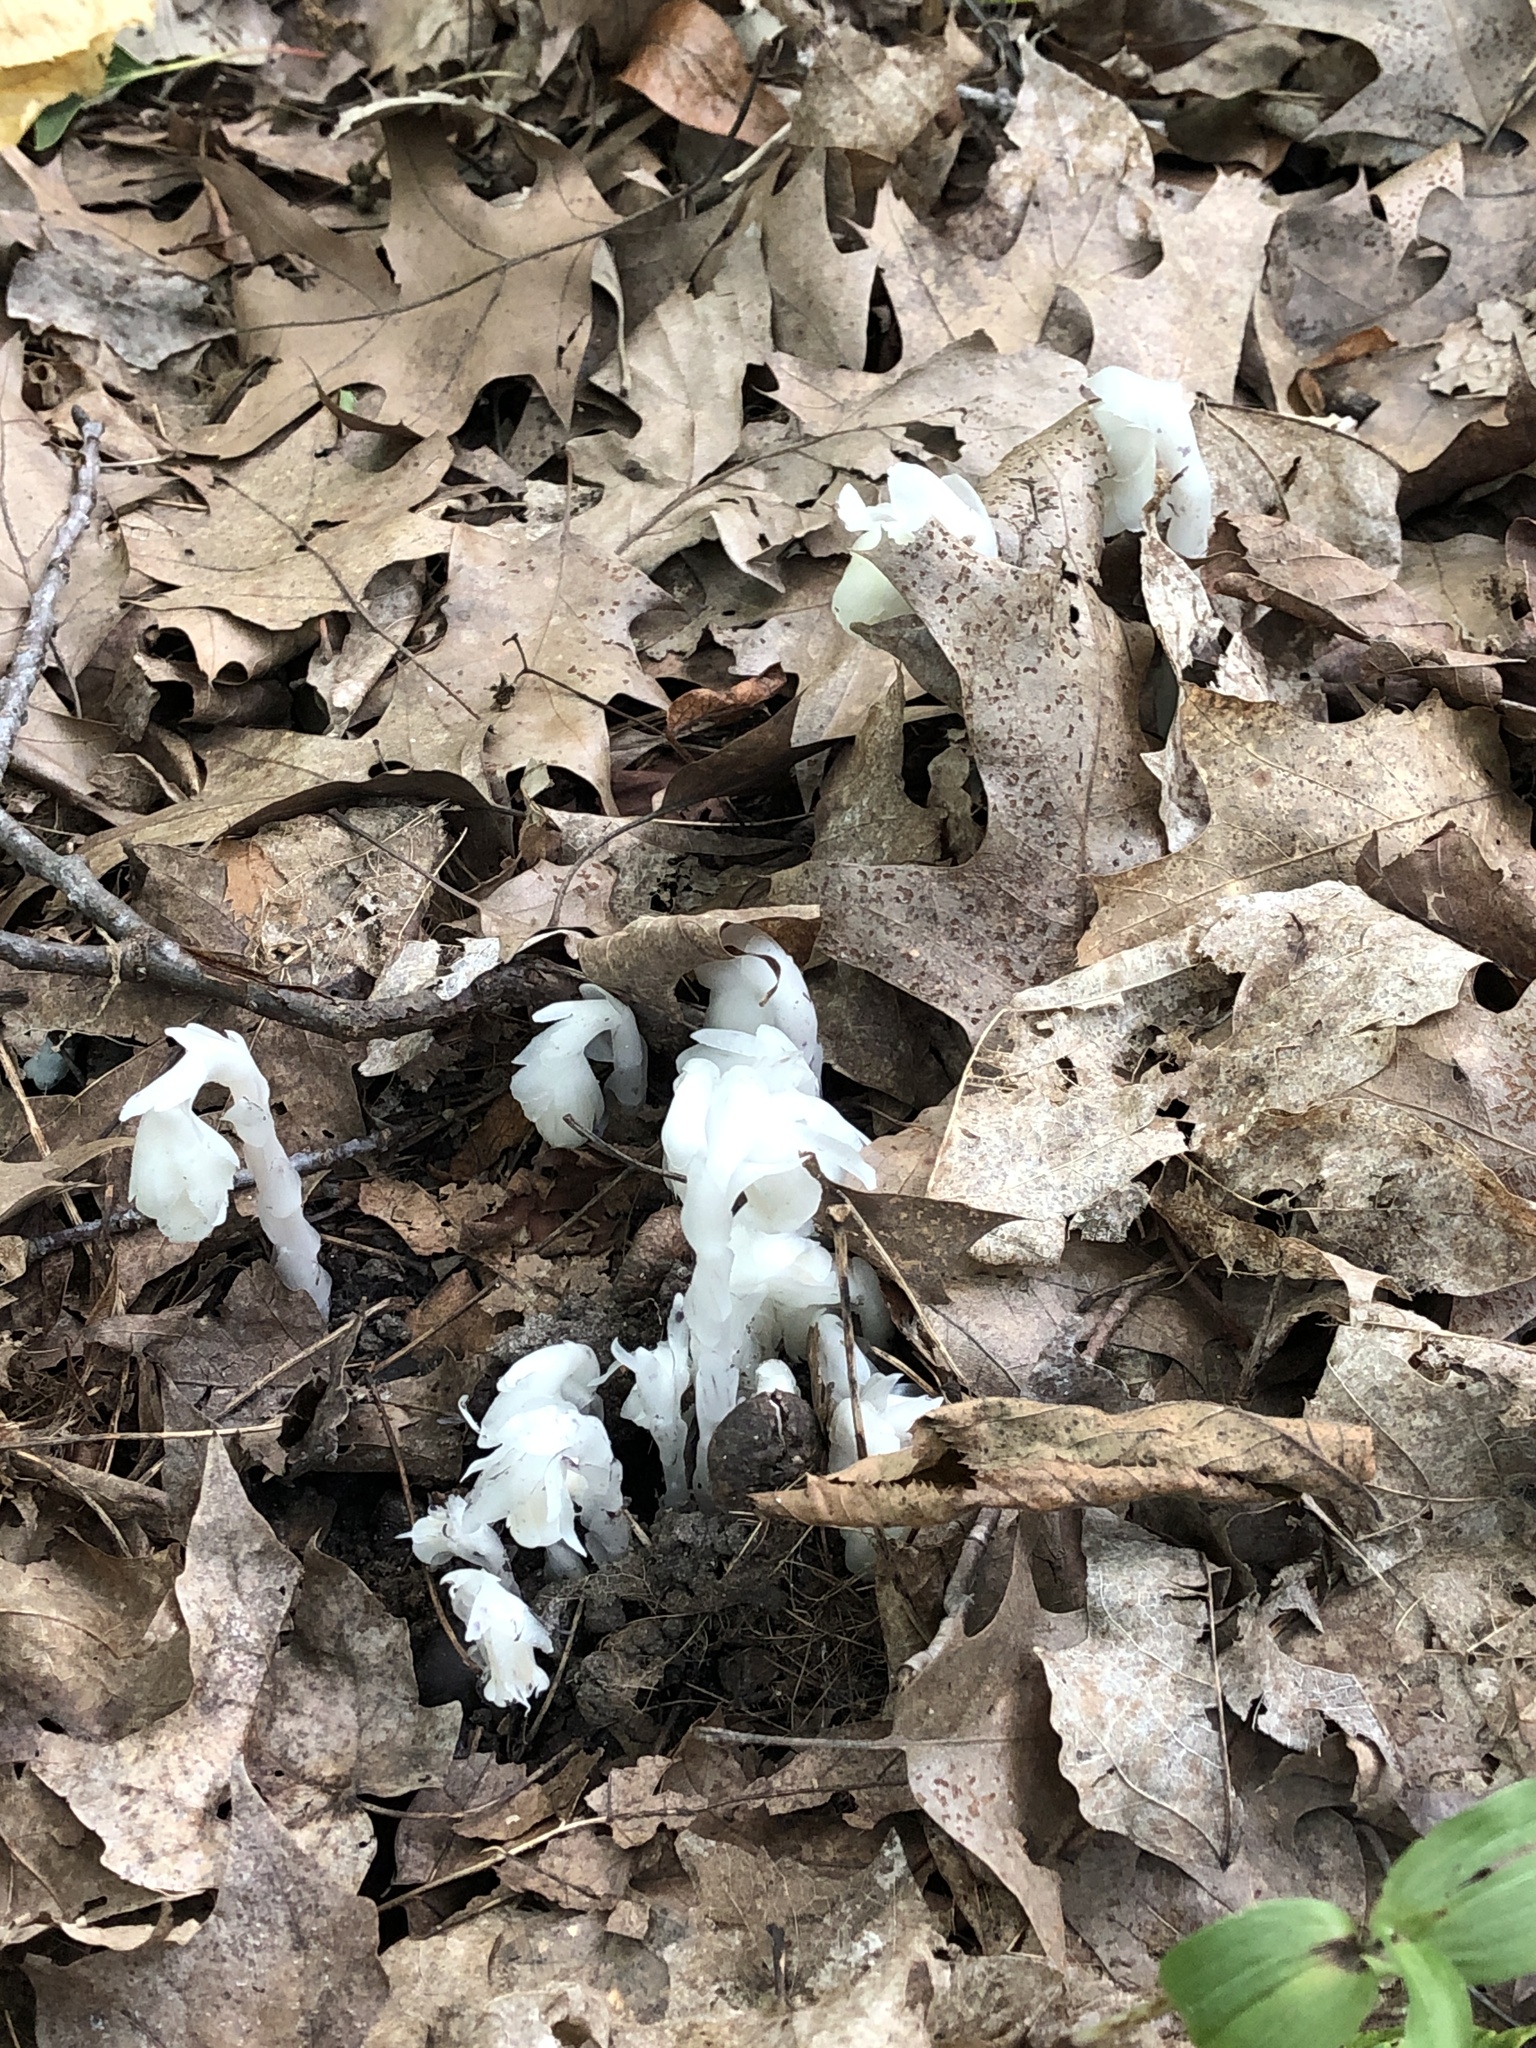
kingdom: Plantae
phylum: Tracheophyta
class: Magnoliopsida
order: Ericales
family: Ericaceae
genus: Monotropa
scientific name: Monotropa uniflora
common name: Convulsion root
